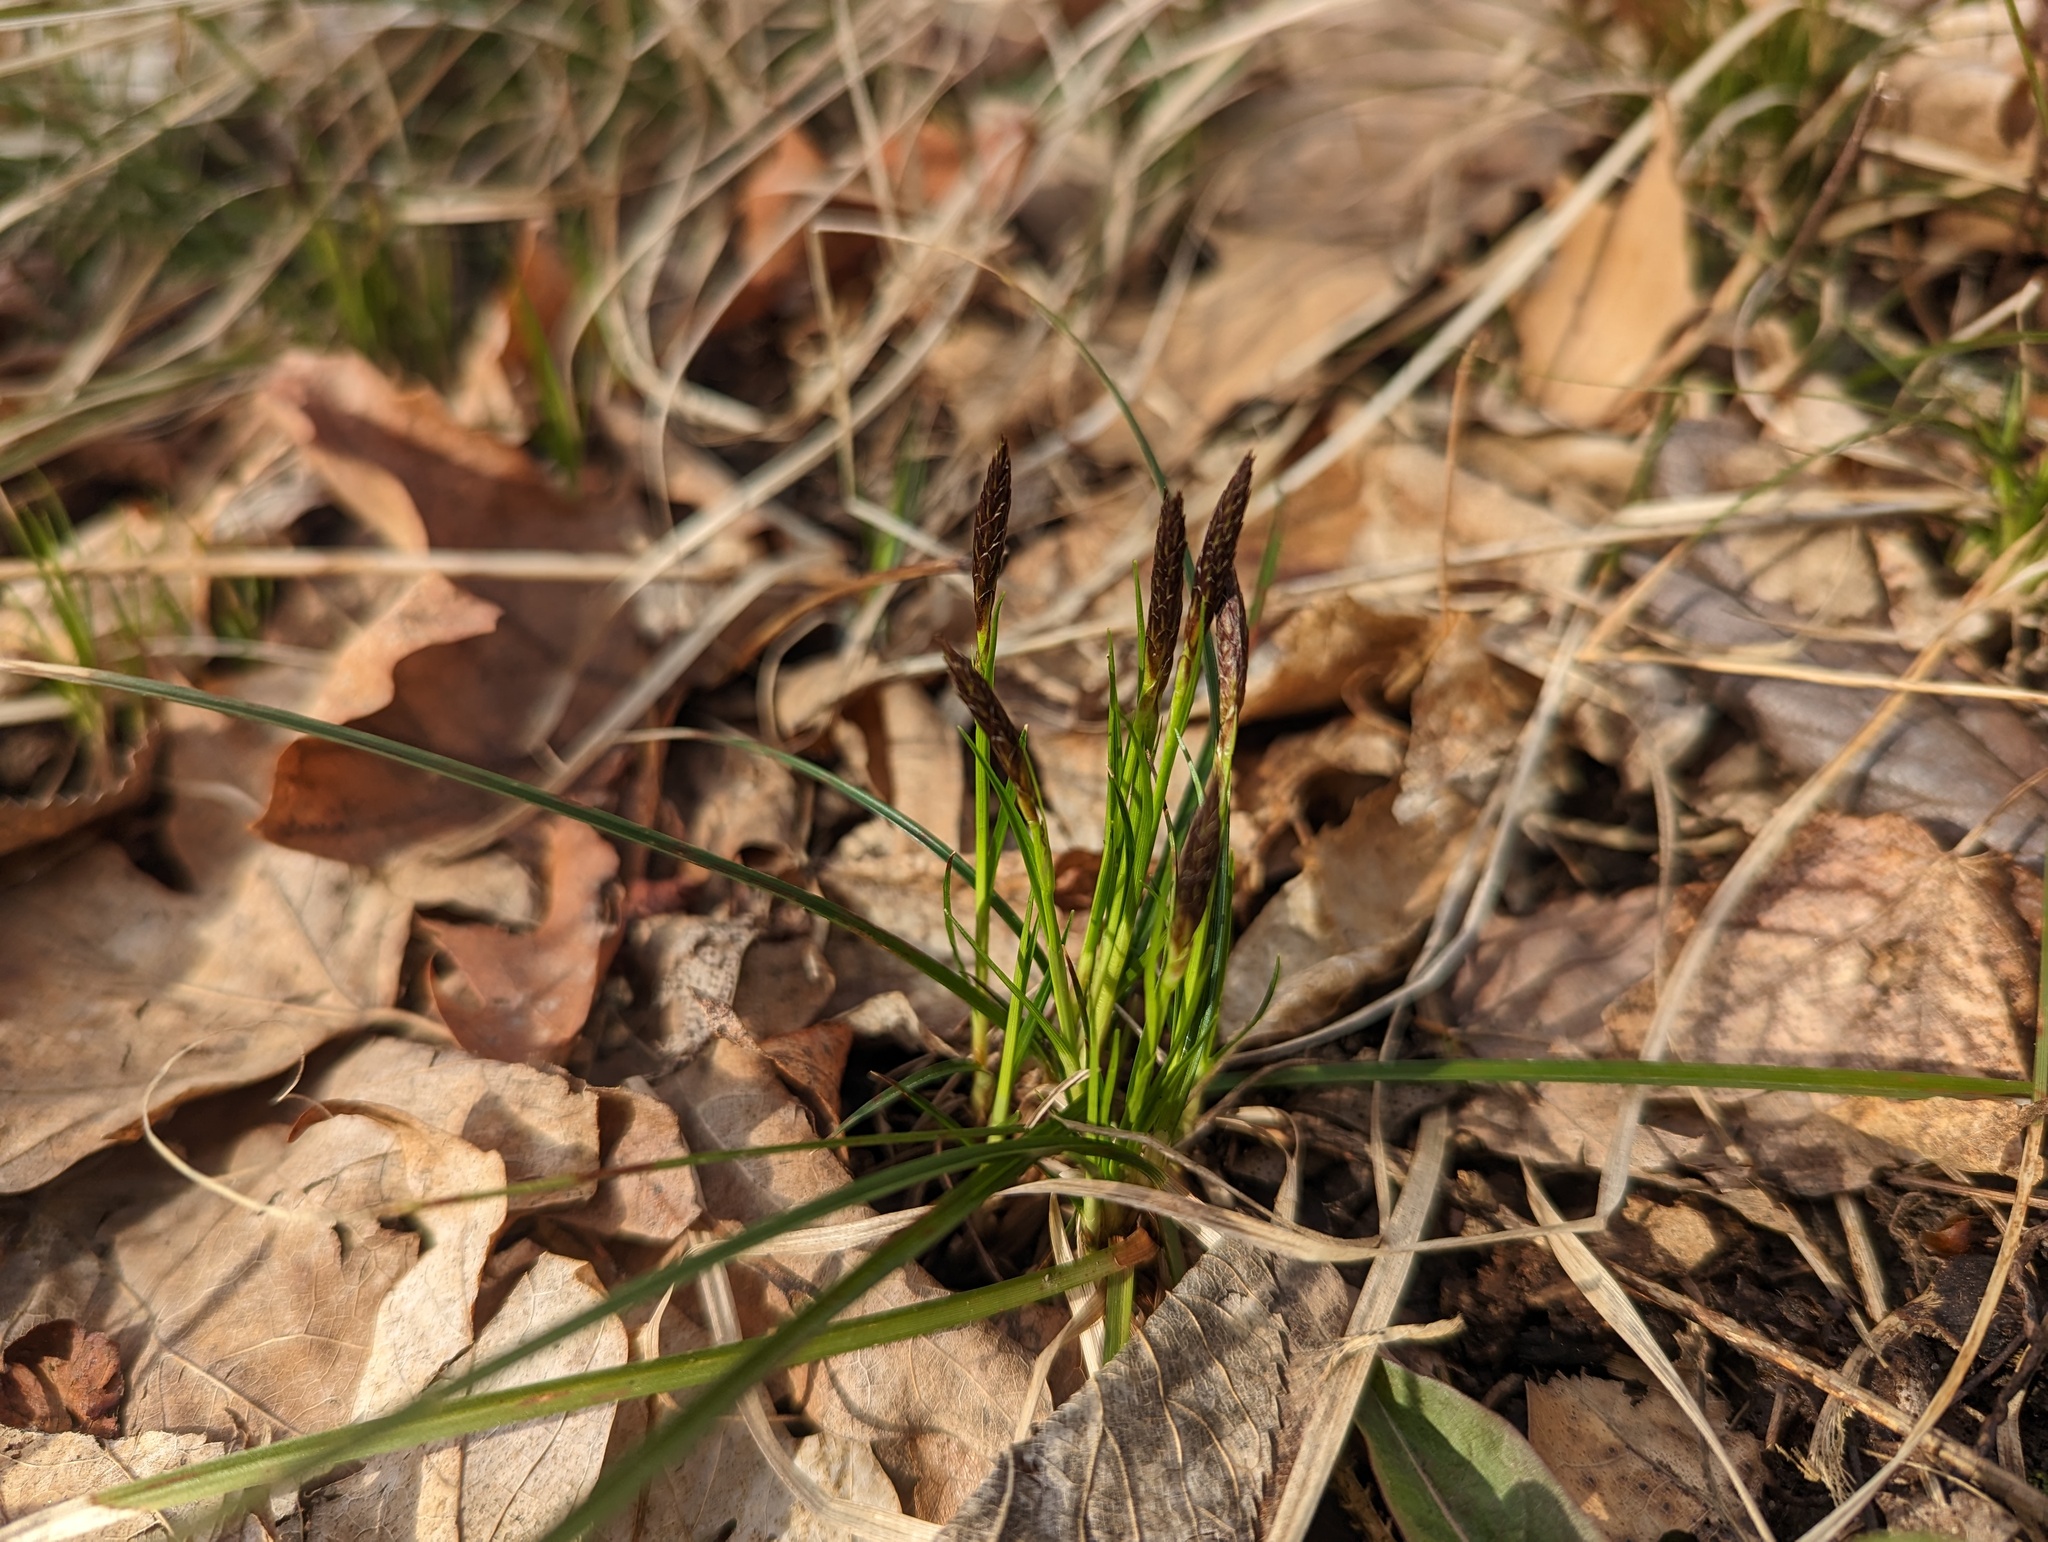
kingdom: Plantae
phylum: Tracheophyta
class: Liliopsida
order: Poales
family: Cyperaceae
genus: Carex
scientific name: Carex pensylvanica
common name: Common oak sedge
